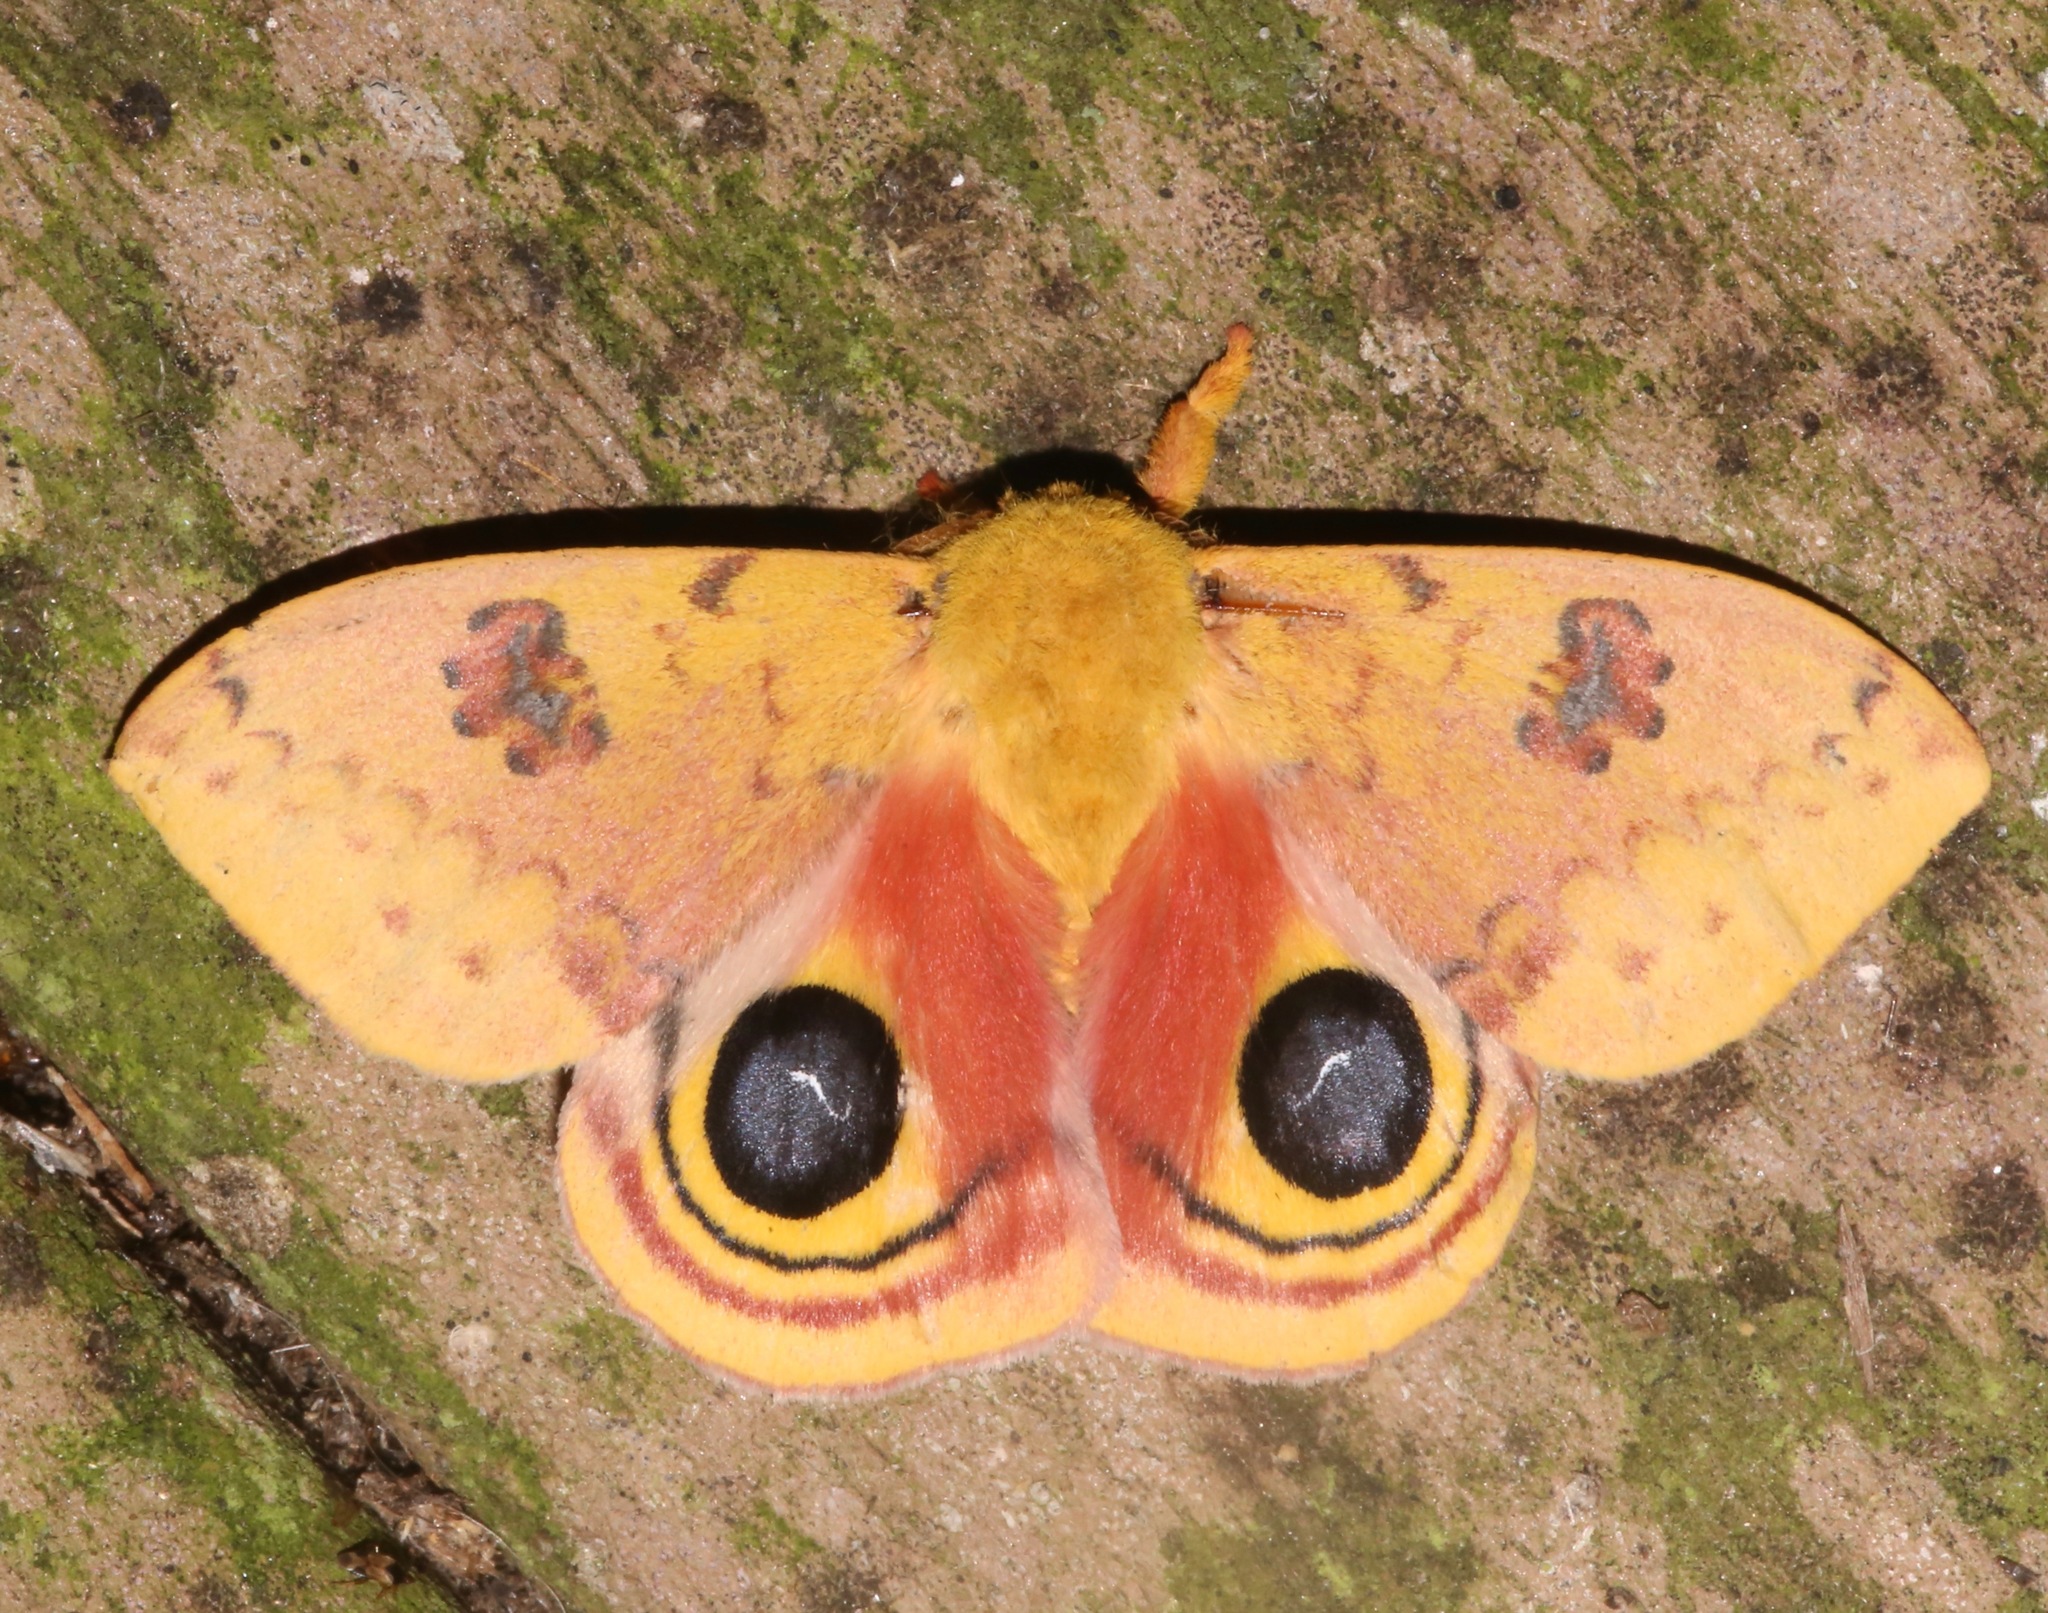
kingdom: Animalia
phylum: Arthropoda
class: Insecta
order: Lepidoptera
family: Saturniidae
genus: Automeris
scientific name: Automeris io
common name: Io moth
